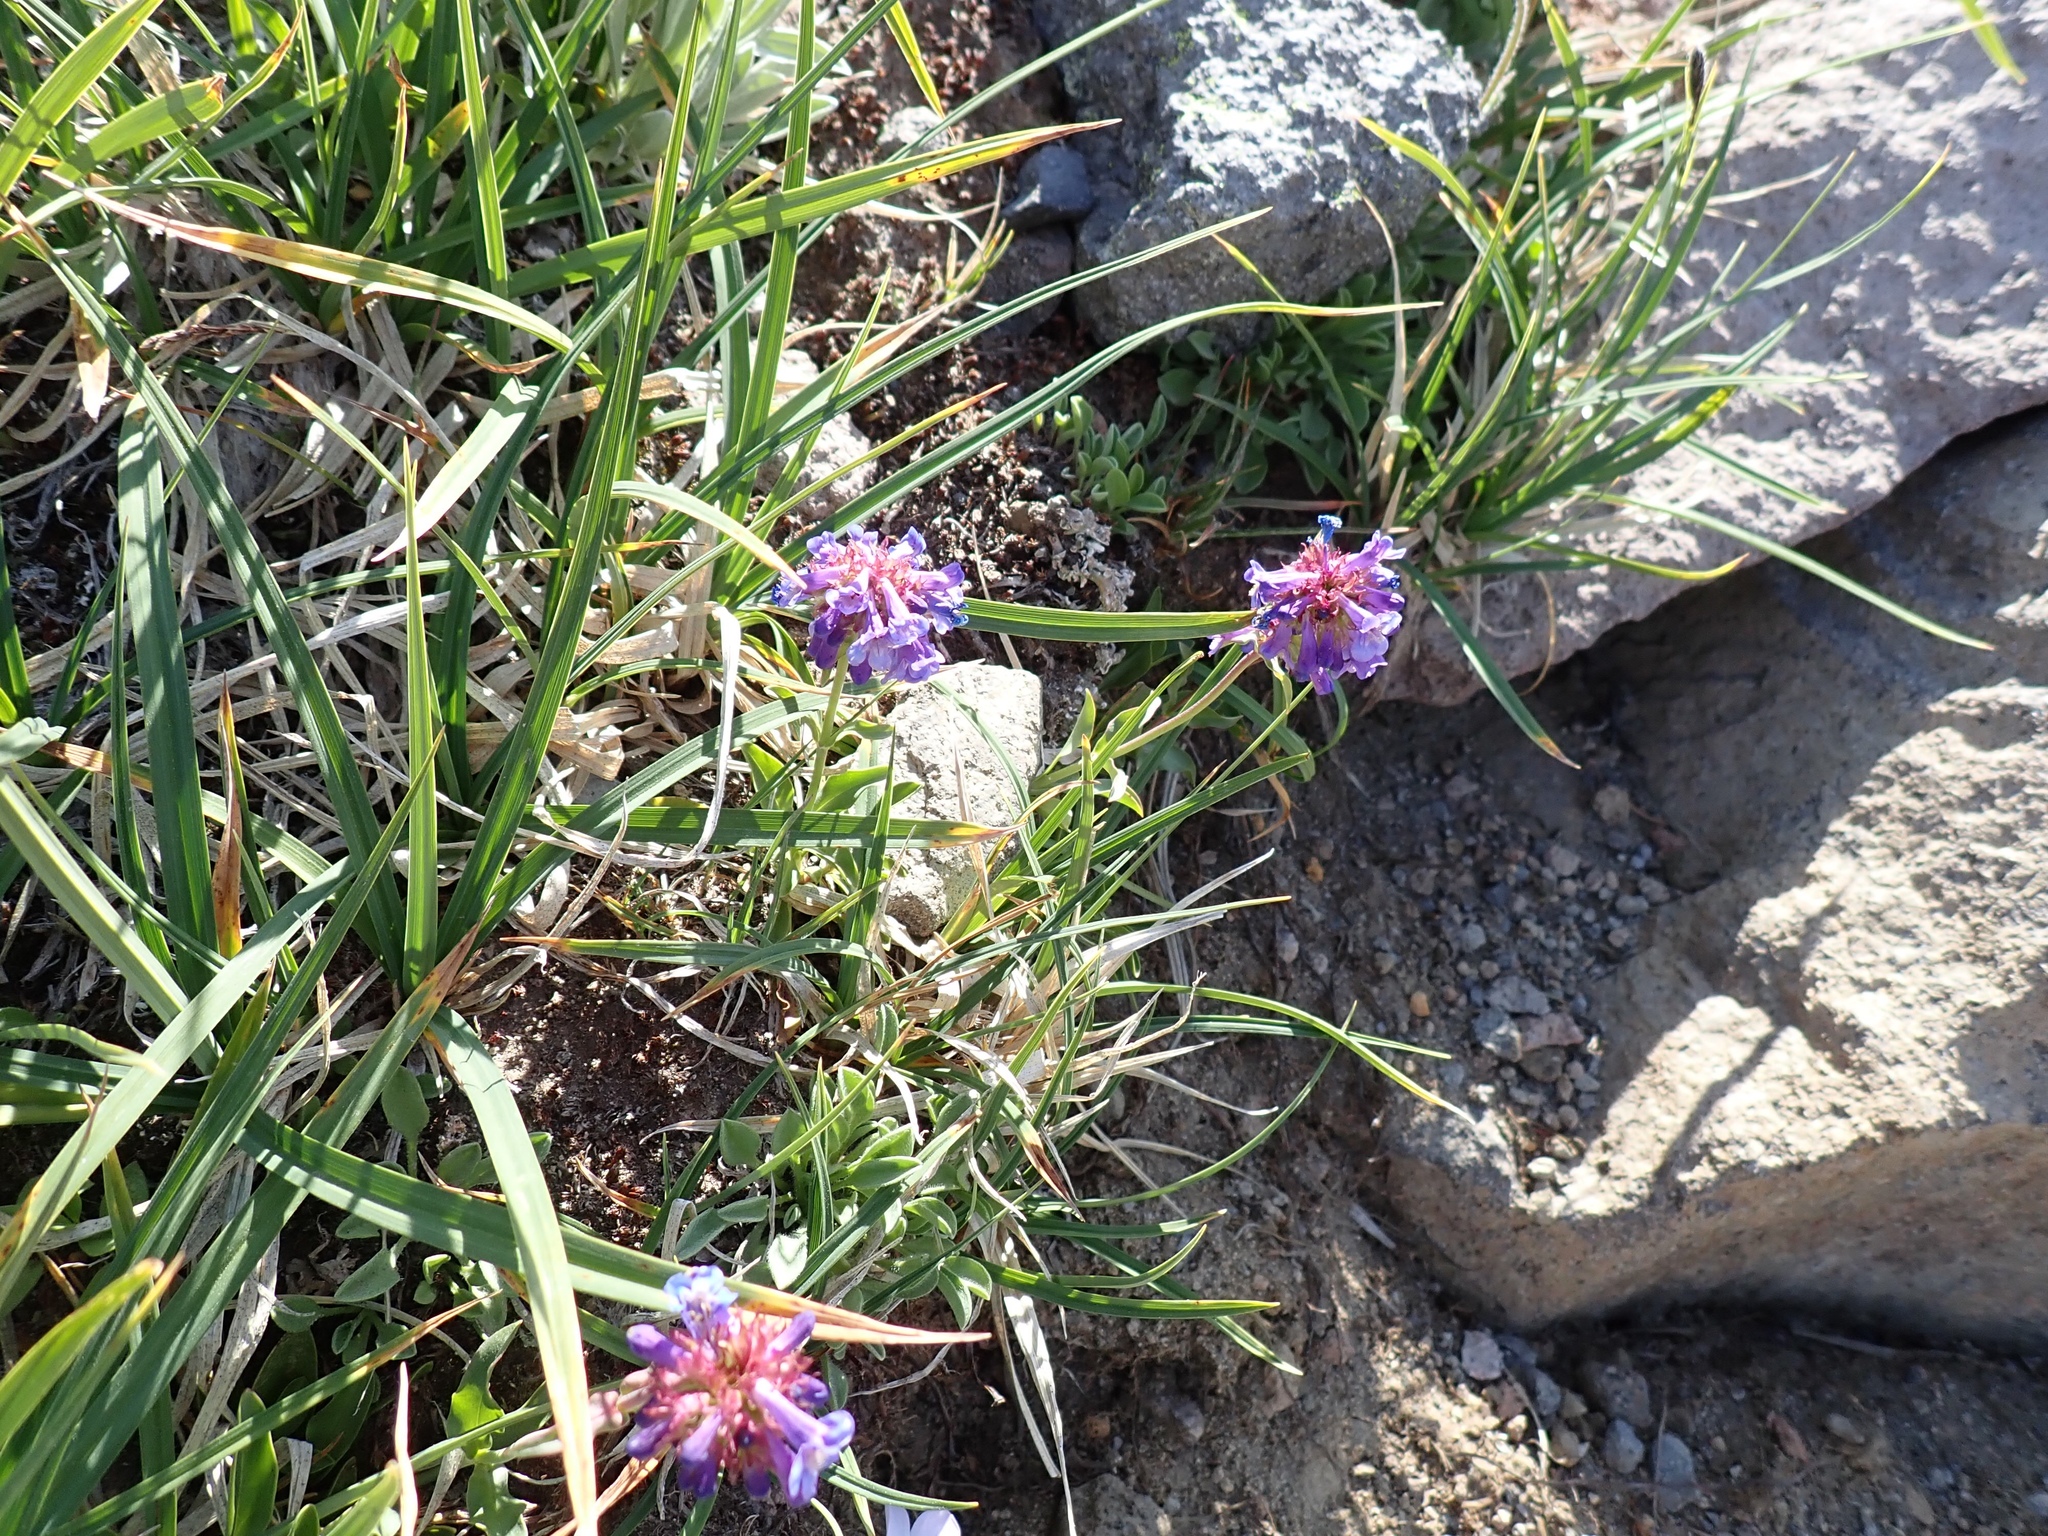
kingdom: Plantae
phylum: Tracheophyta
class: Magnoliopsida
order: Lamiales
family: Plantaginaceae
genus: Penstemon
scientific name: Penstemon procerus
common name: Small-flower penstemon
